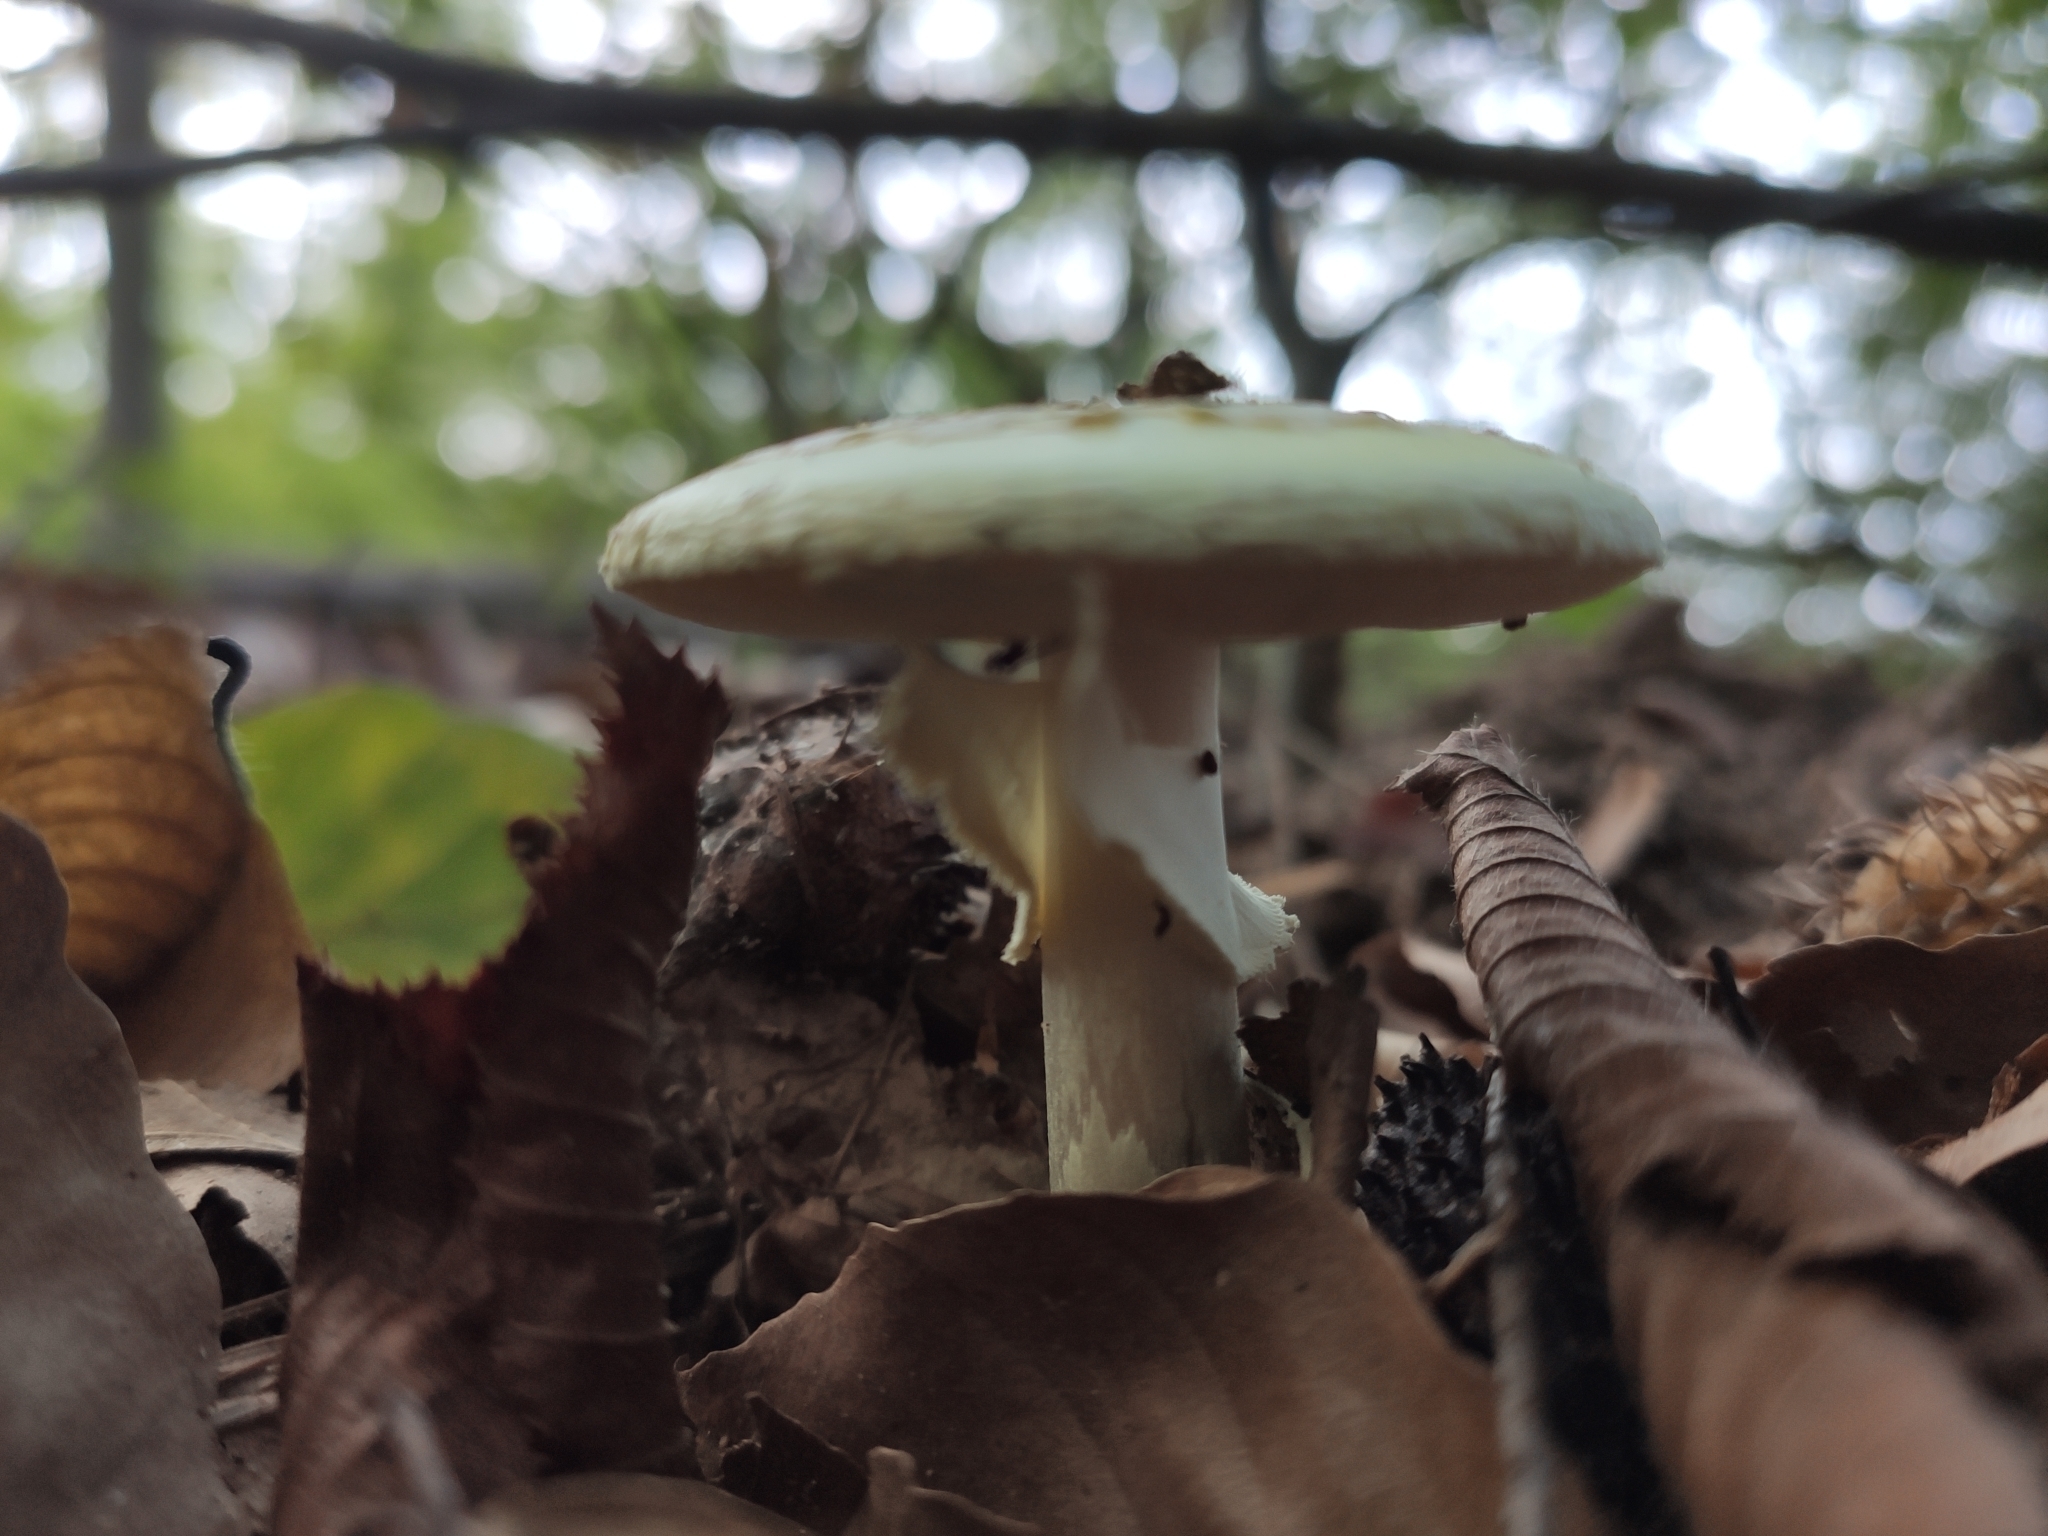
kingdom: Fungi
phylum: Basidiomycota
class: Agaricomycetes
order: Agaricales
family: Amanitaceae
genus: Amanita
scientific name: Amanita citrina
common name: False death-cap
